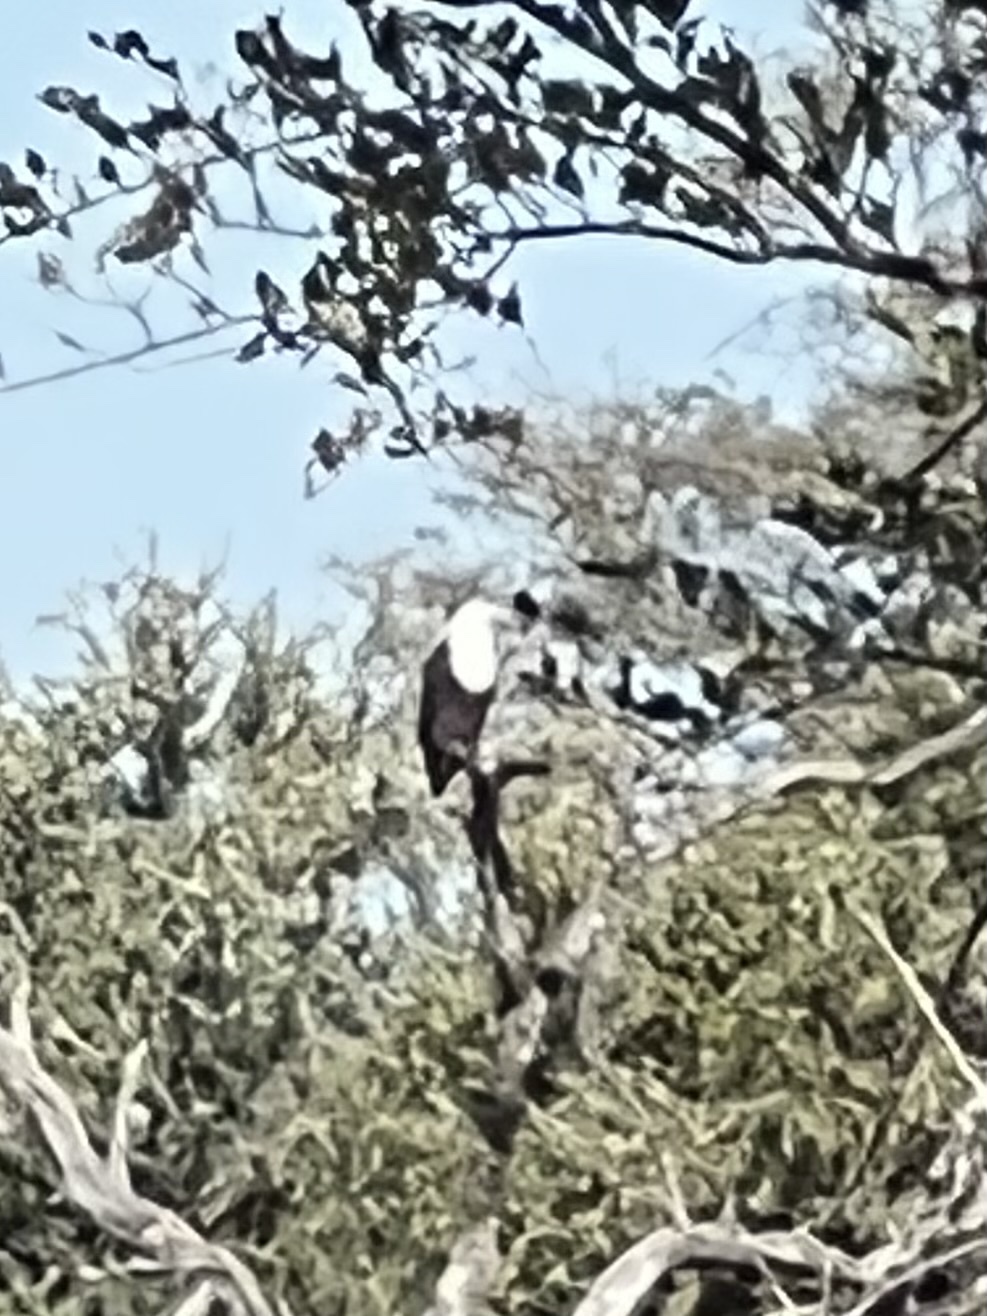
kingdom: Animalia
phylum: Chordata
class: Aves
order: Accipitriformes
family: Accipitridae
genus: Haliaeetus
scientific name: Haliaeetus vocifer
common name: African fish eagle
